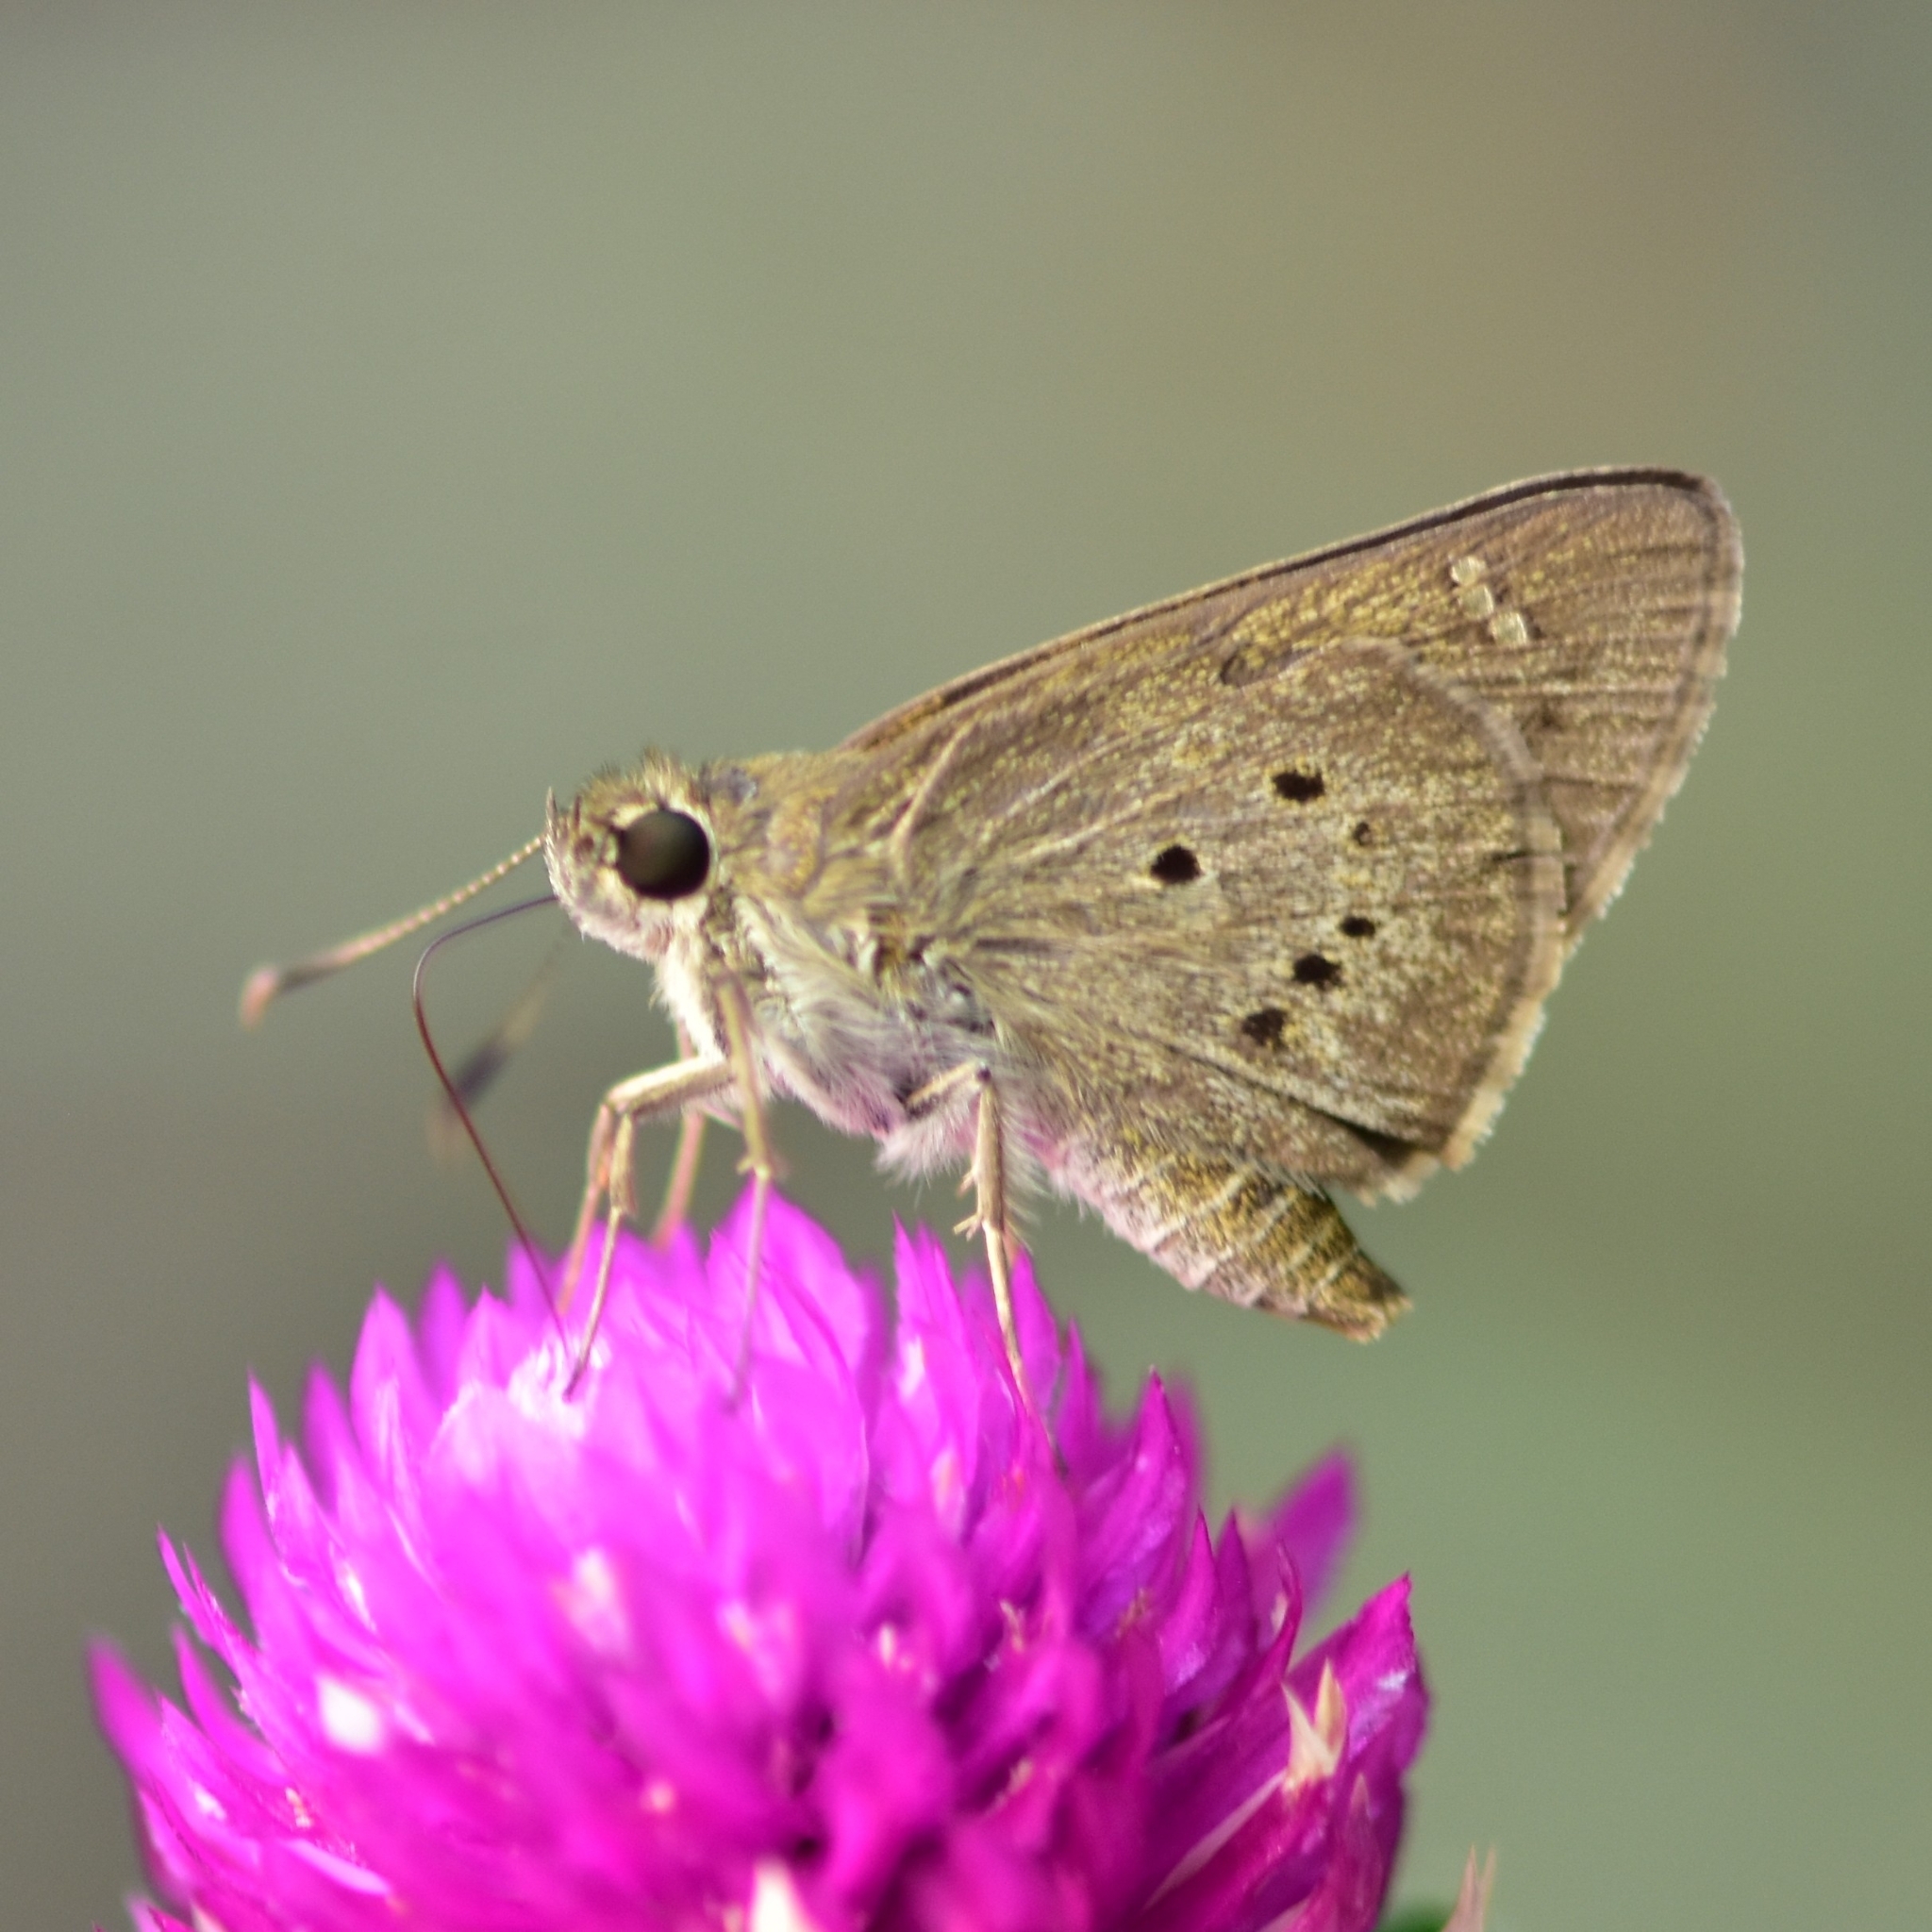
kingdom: Animalia
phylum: Arthropoda
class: Insecta
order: Lepidoptera
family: Hesperiidae
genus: Suastus
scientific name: Suastus gremius
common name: Indian palm bob
